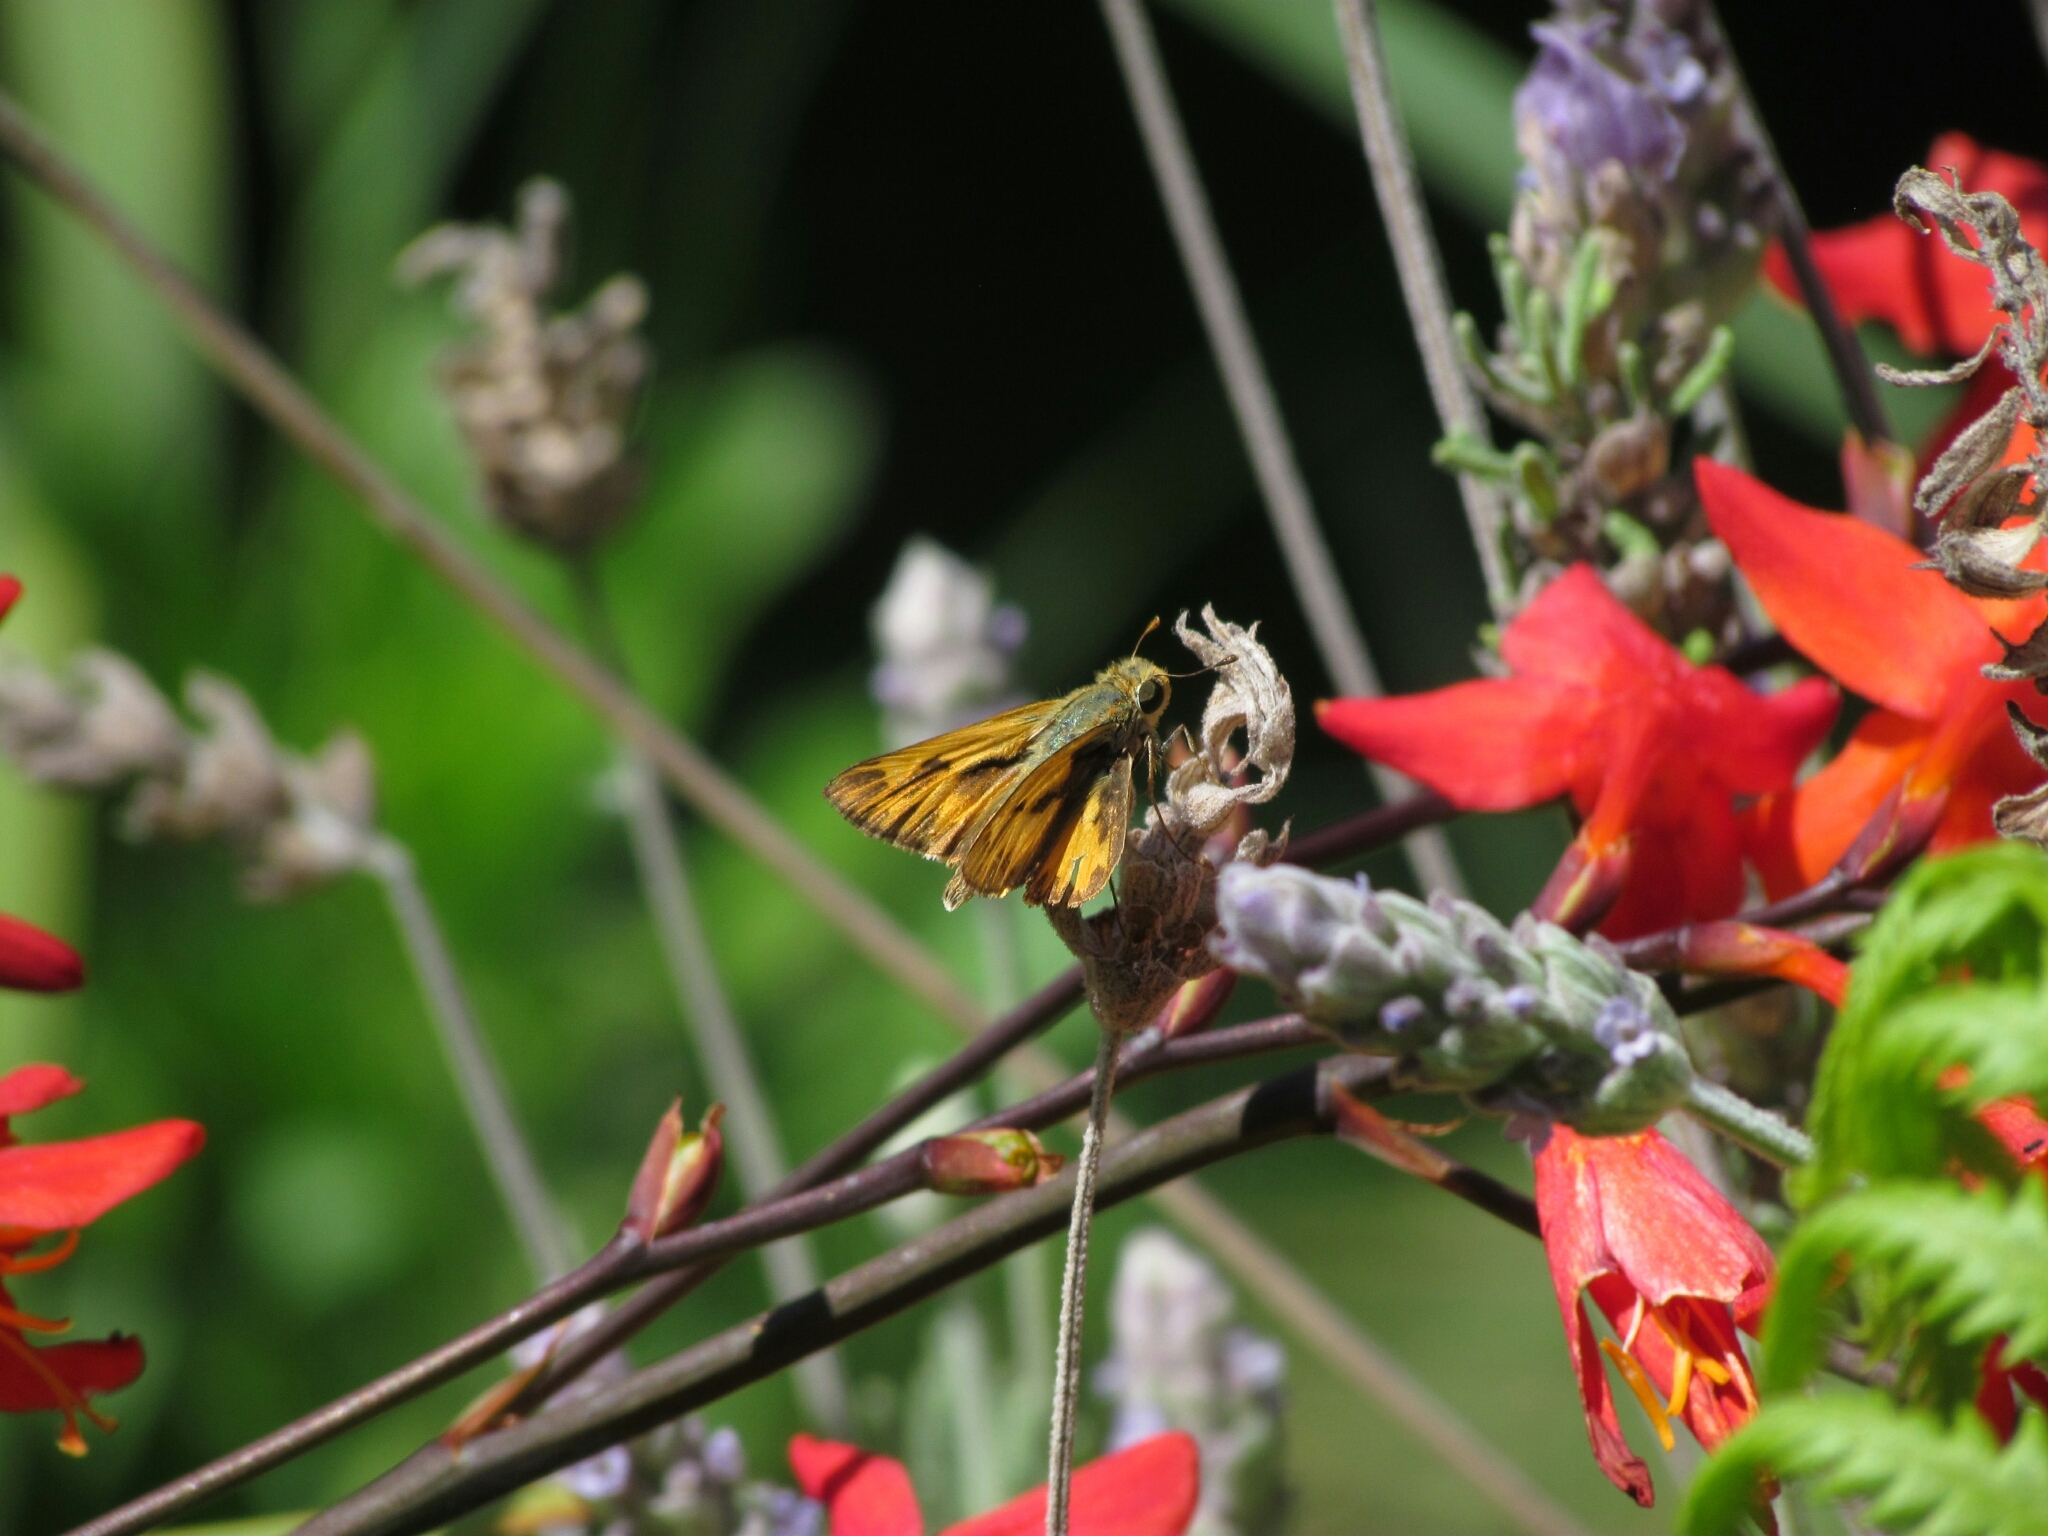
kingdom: Animalia
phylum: Arthropoda
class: Insecta
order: Lepidoptera
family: Hesperiidae
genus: Hylephila
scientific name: Hylephila phyleus
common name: Fiery skipper
